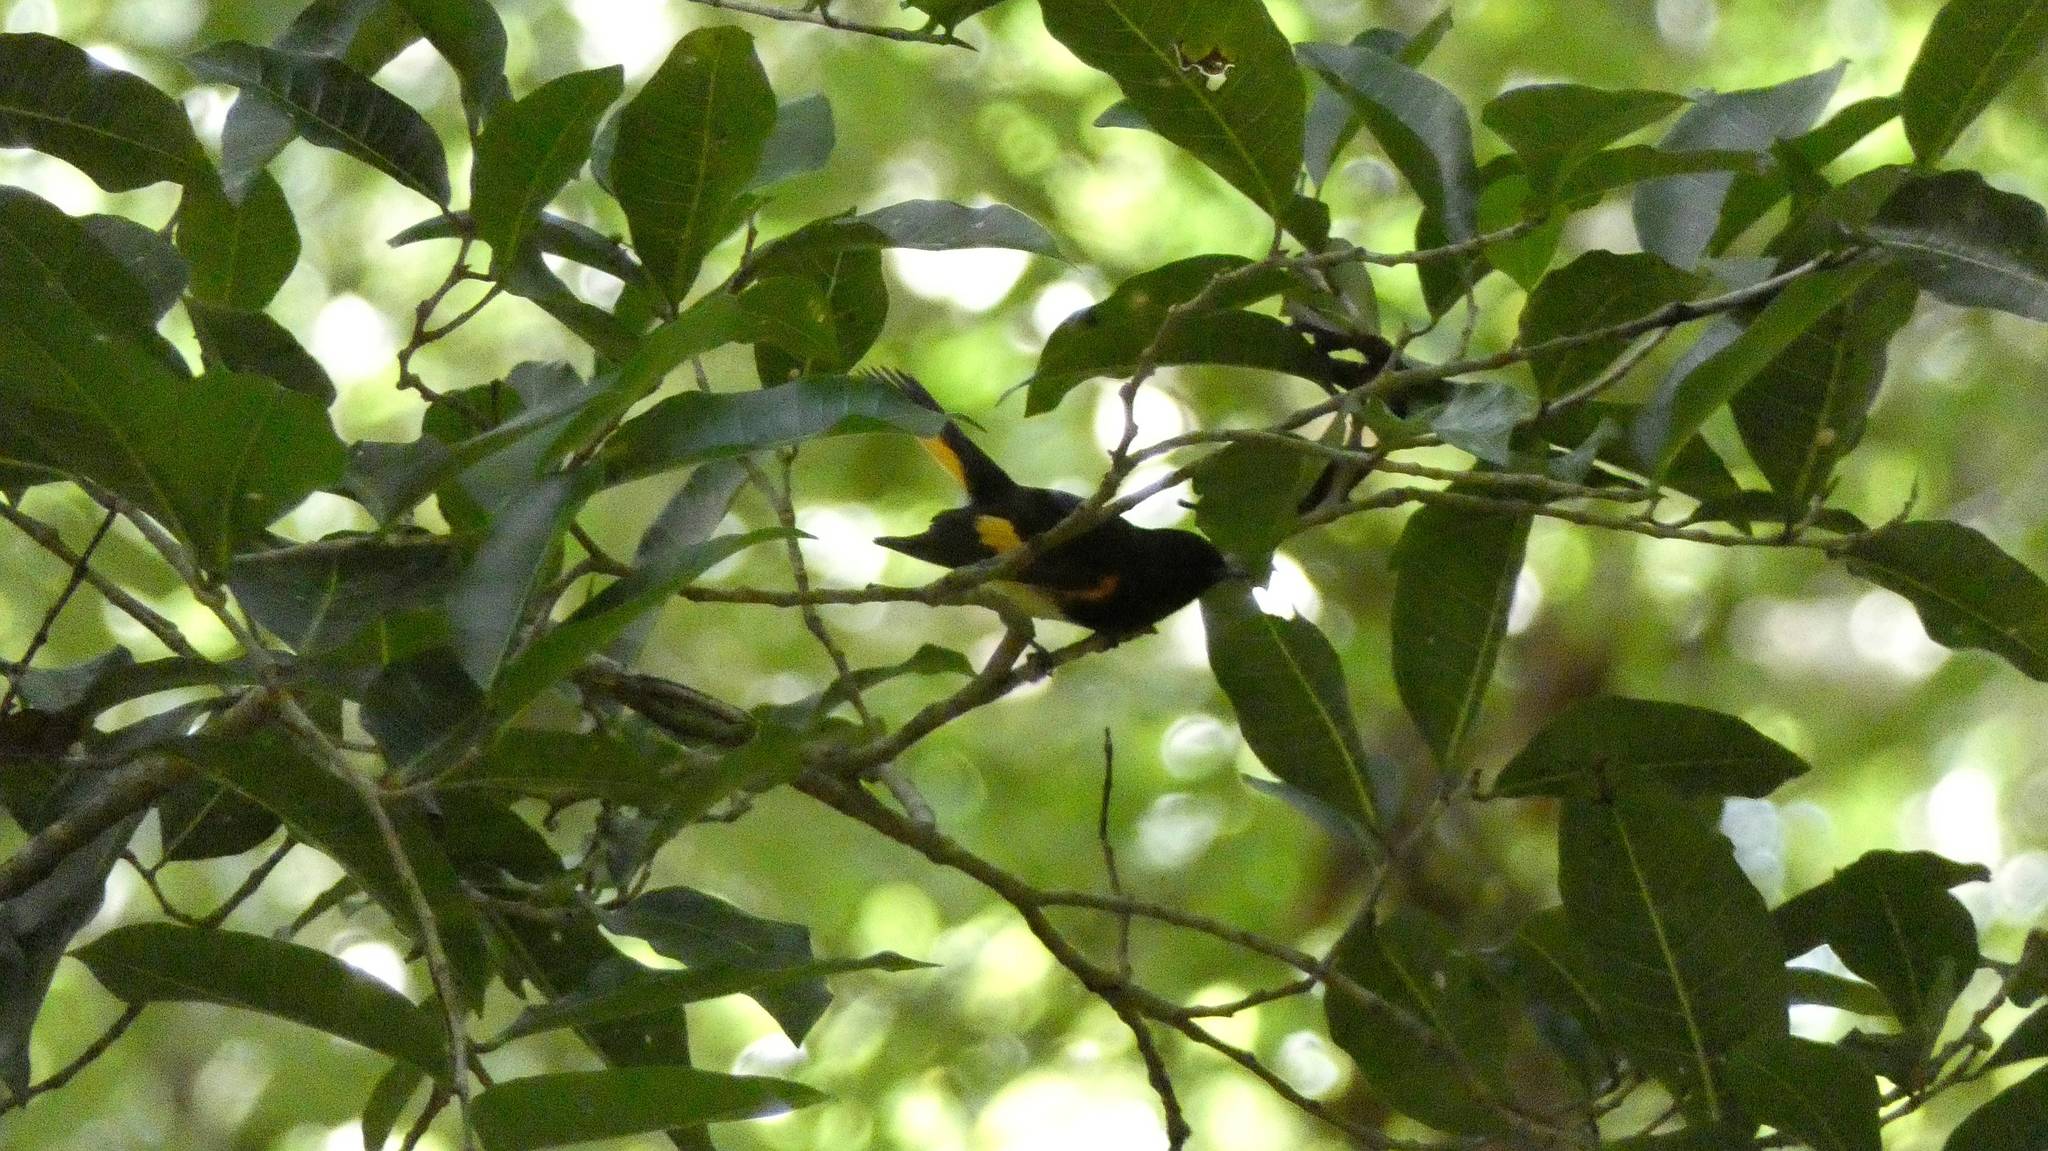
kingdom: Animalia
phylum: Chordata
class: Aves
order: Passeriformes
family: Parulidae
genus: Setophaga
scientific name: Setophaga ruticilla
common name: American redstart
